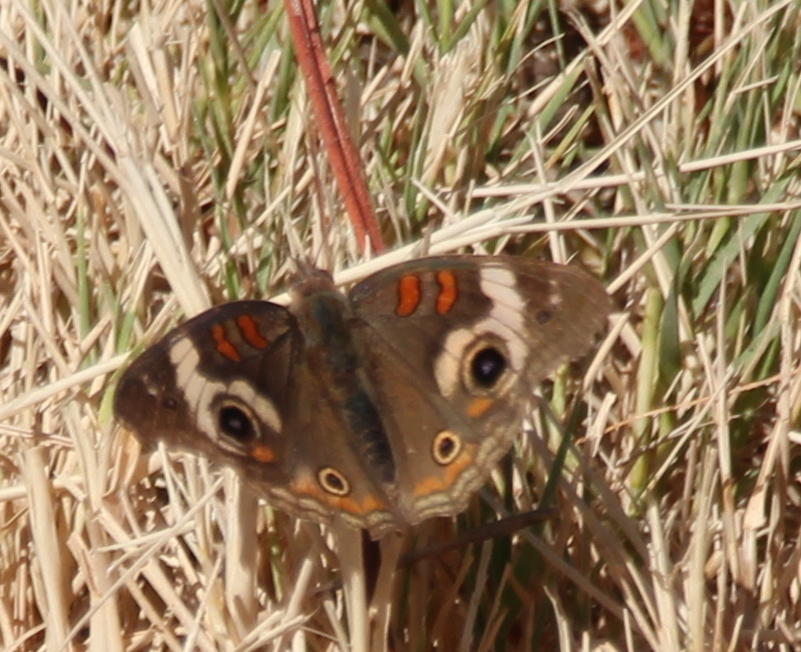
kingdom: Animalia
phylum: Arthropoda
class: Insecta
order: Lepidoptera
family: Nymphalidae
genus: Junonia
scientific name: Junonia grisea
